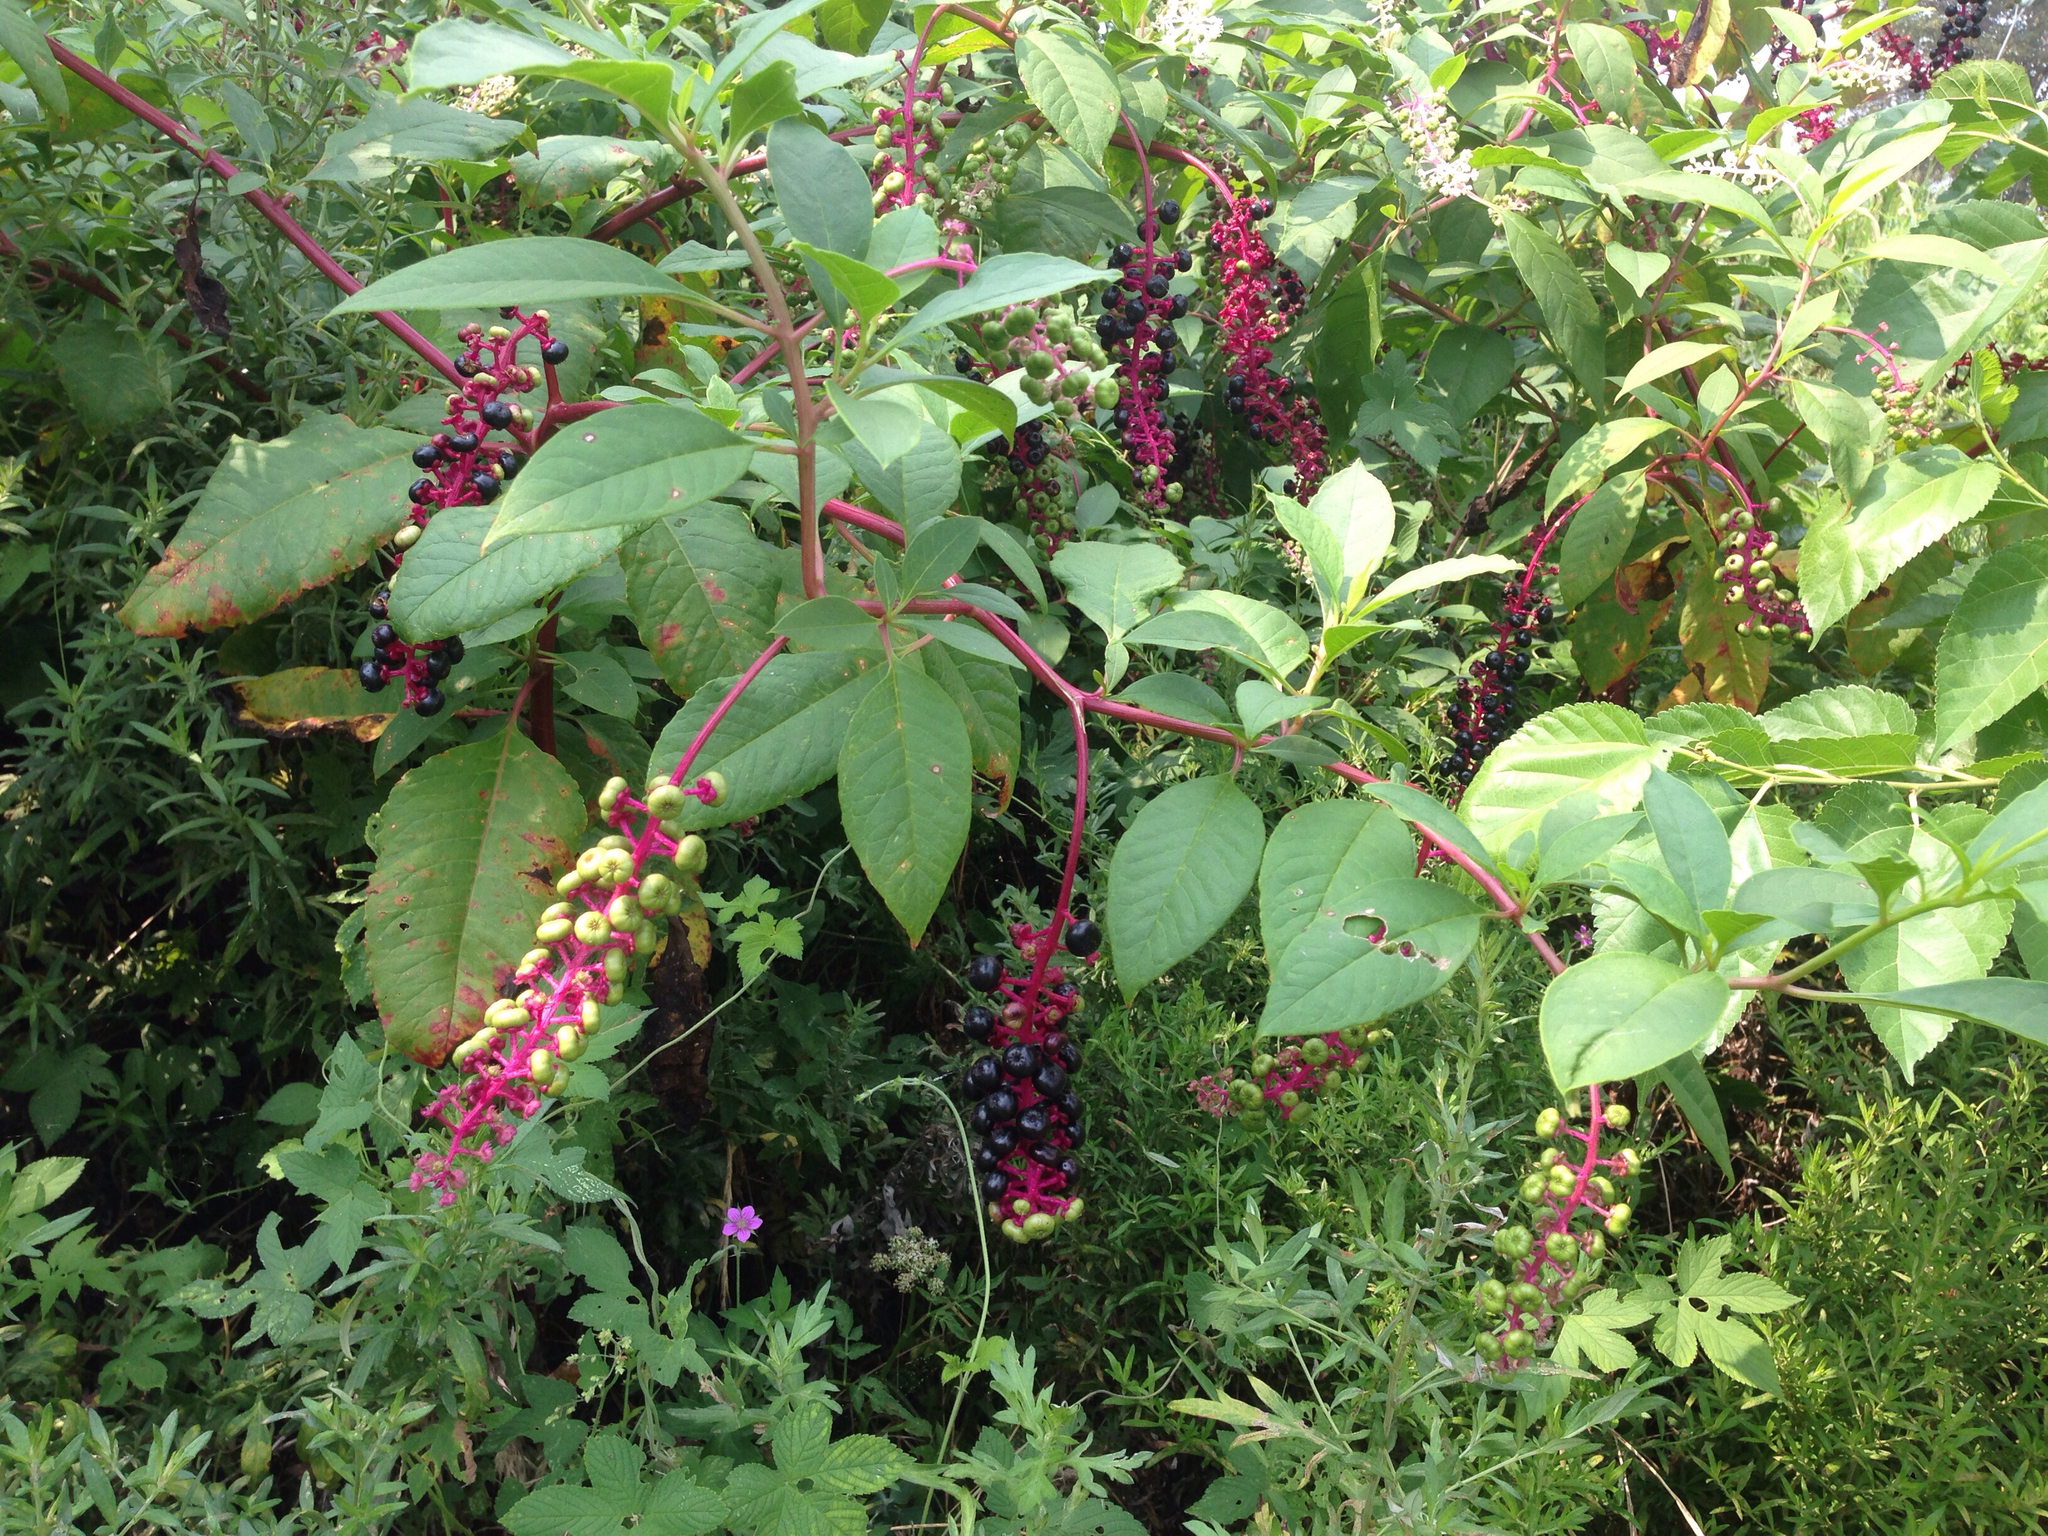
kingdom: Plantae
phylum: Tracheophyta
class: Magnoliopsida
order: Caryophyllales
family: Phytolaccaceae
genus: Phytolacca
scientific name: Phytolacca americana
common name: American pokeweed
